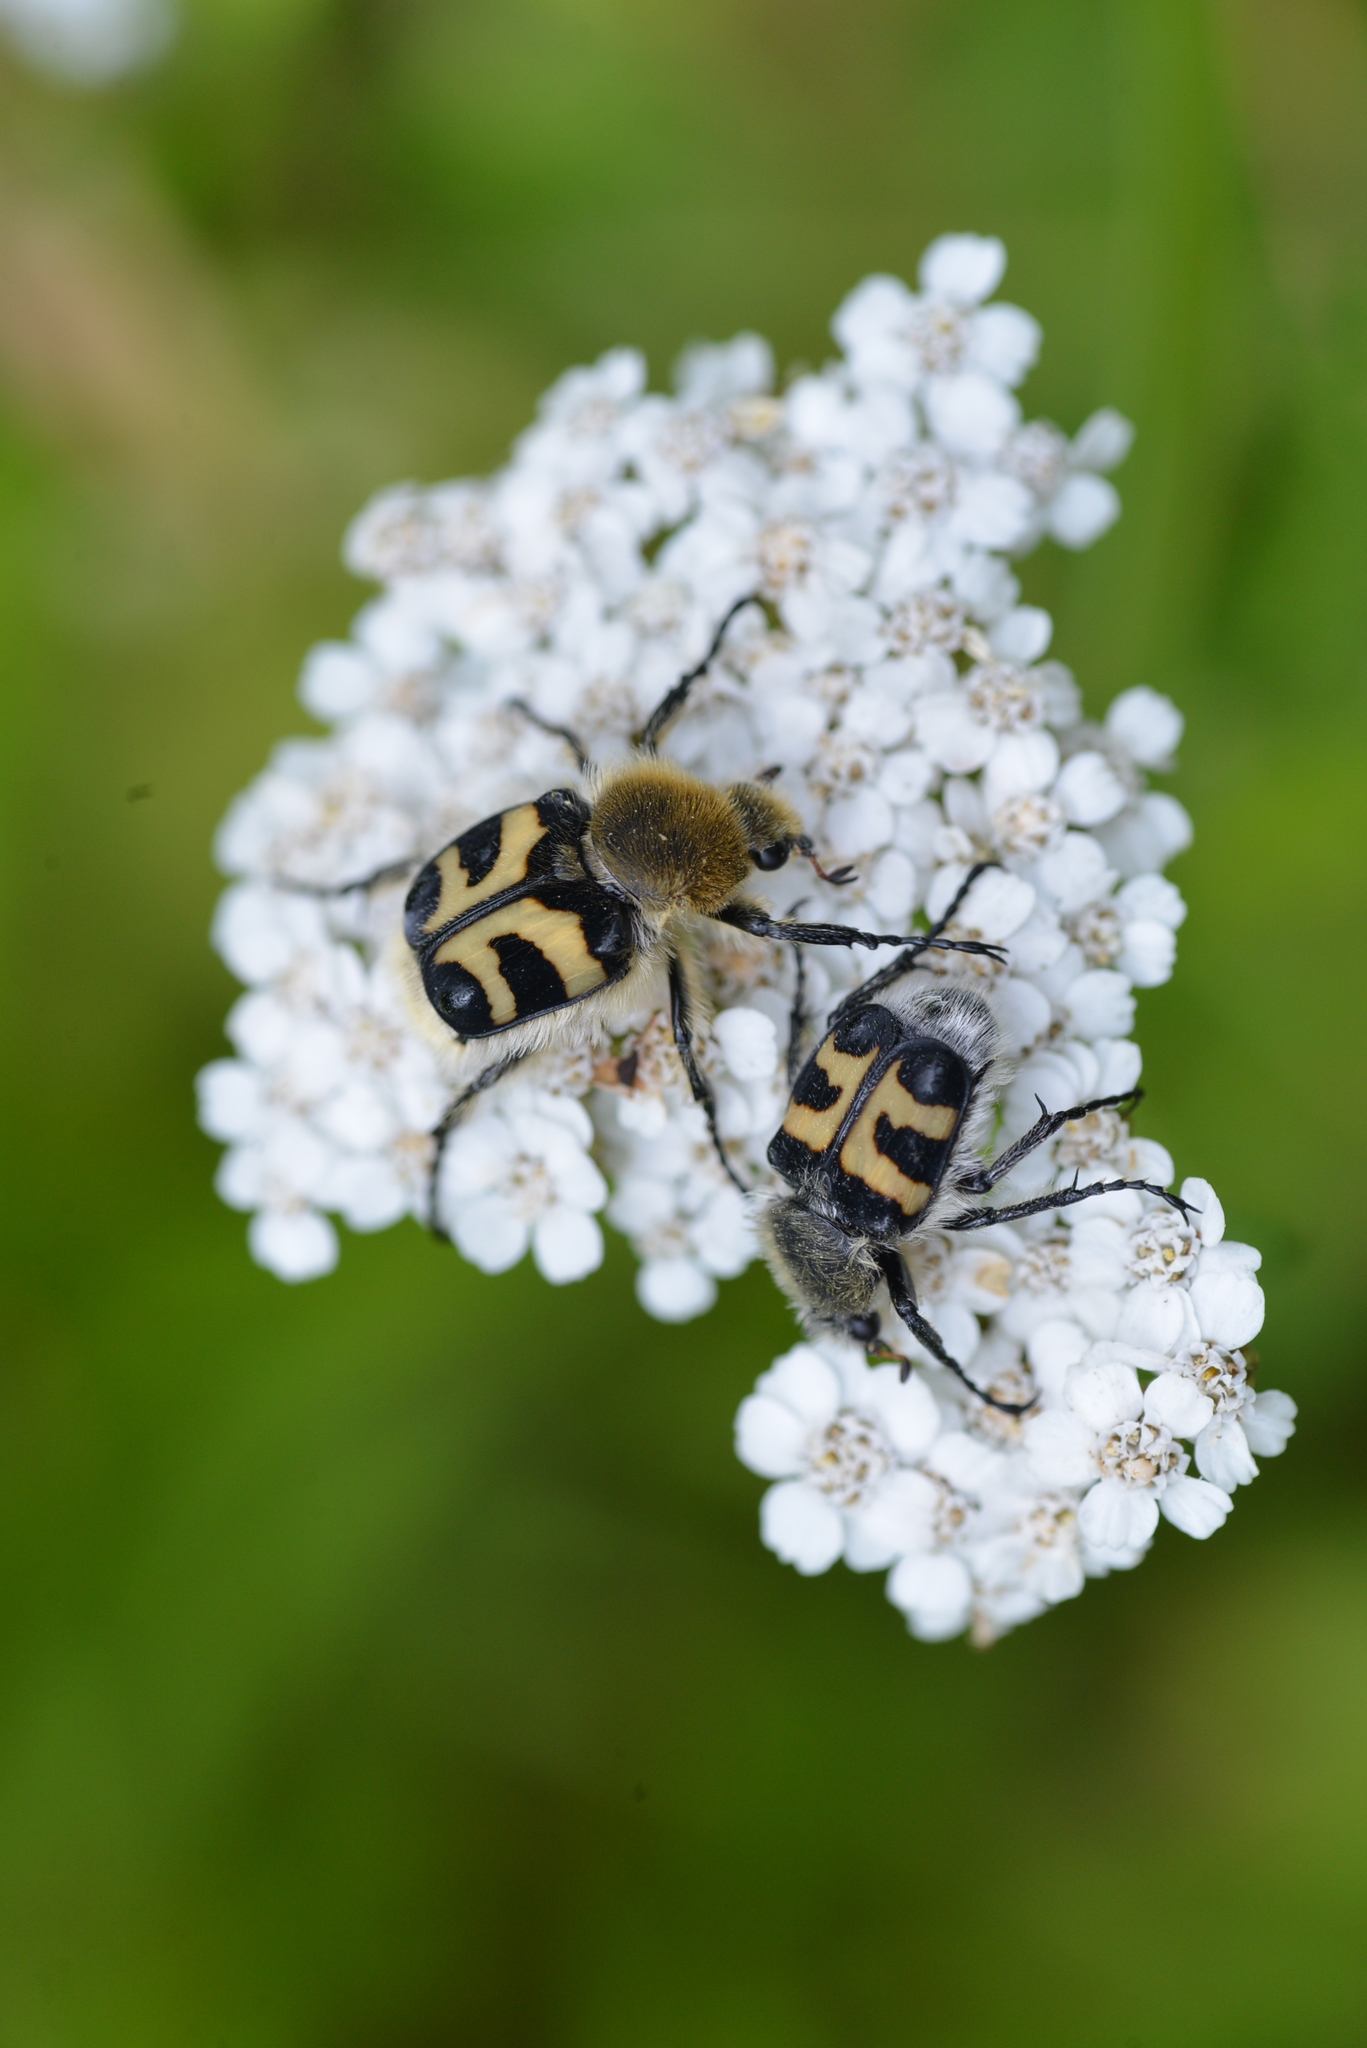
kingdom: Animalia
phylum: Arthropoda
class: Insecta
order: Coleoptera
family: Scarabaeidae
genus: Trichius
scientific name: Trichius fasciatus
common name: Bee beetle
